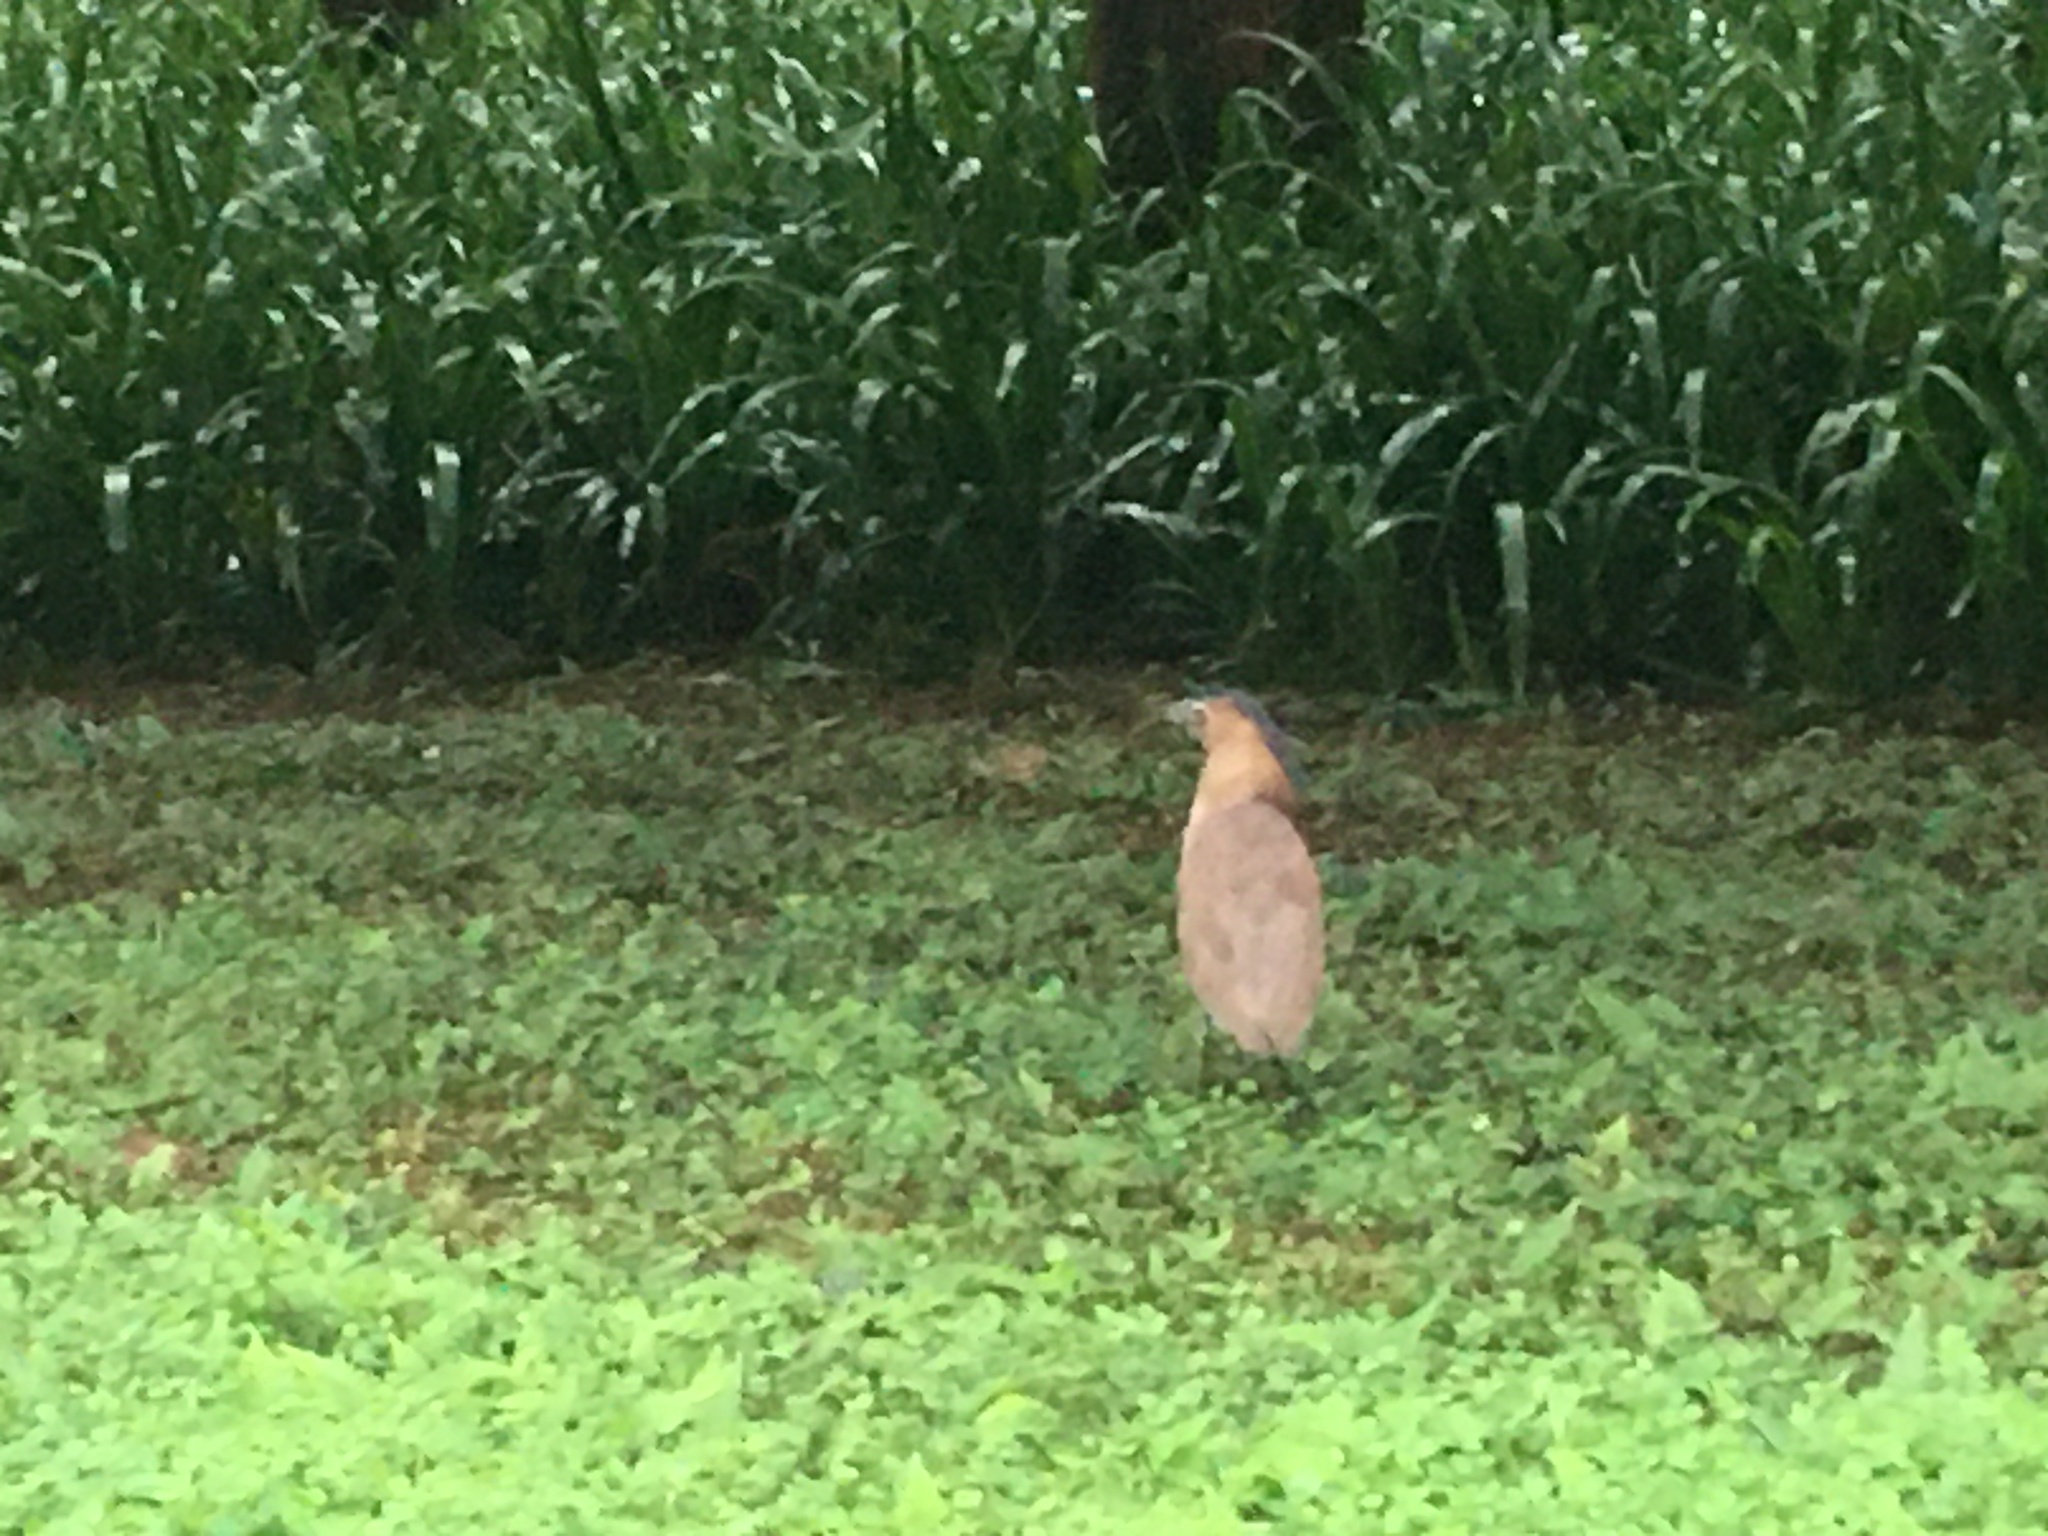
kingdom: Animalia
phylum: Chordata
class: Aves
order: Pelecaniformes
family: Ardeidae
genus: Gorsachius
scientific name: Gorsachius melanolophus
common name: Malayan night heron
